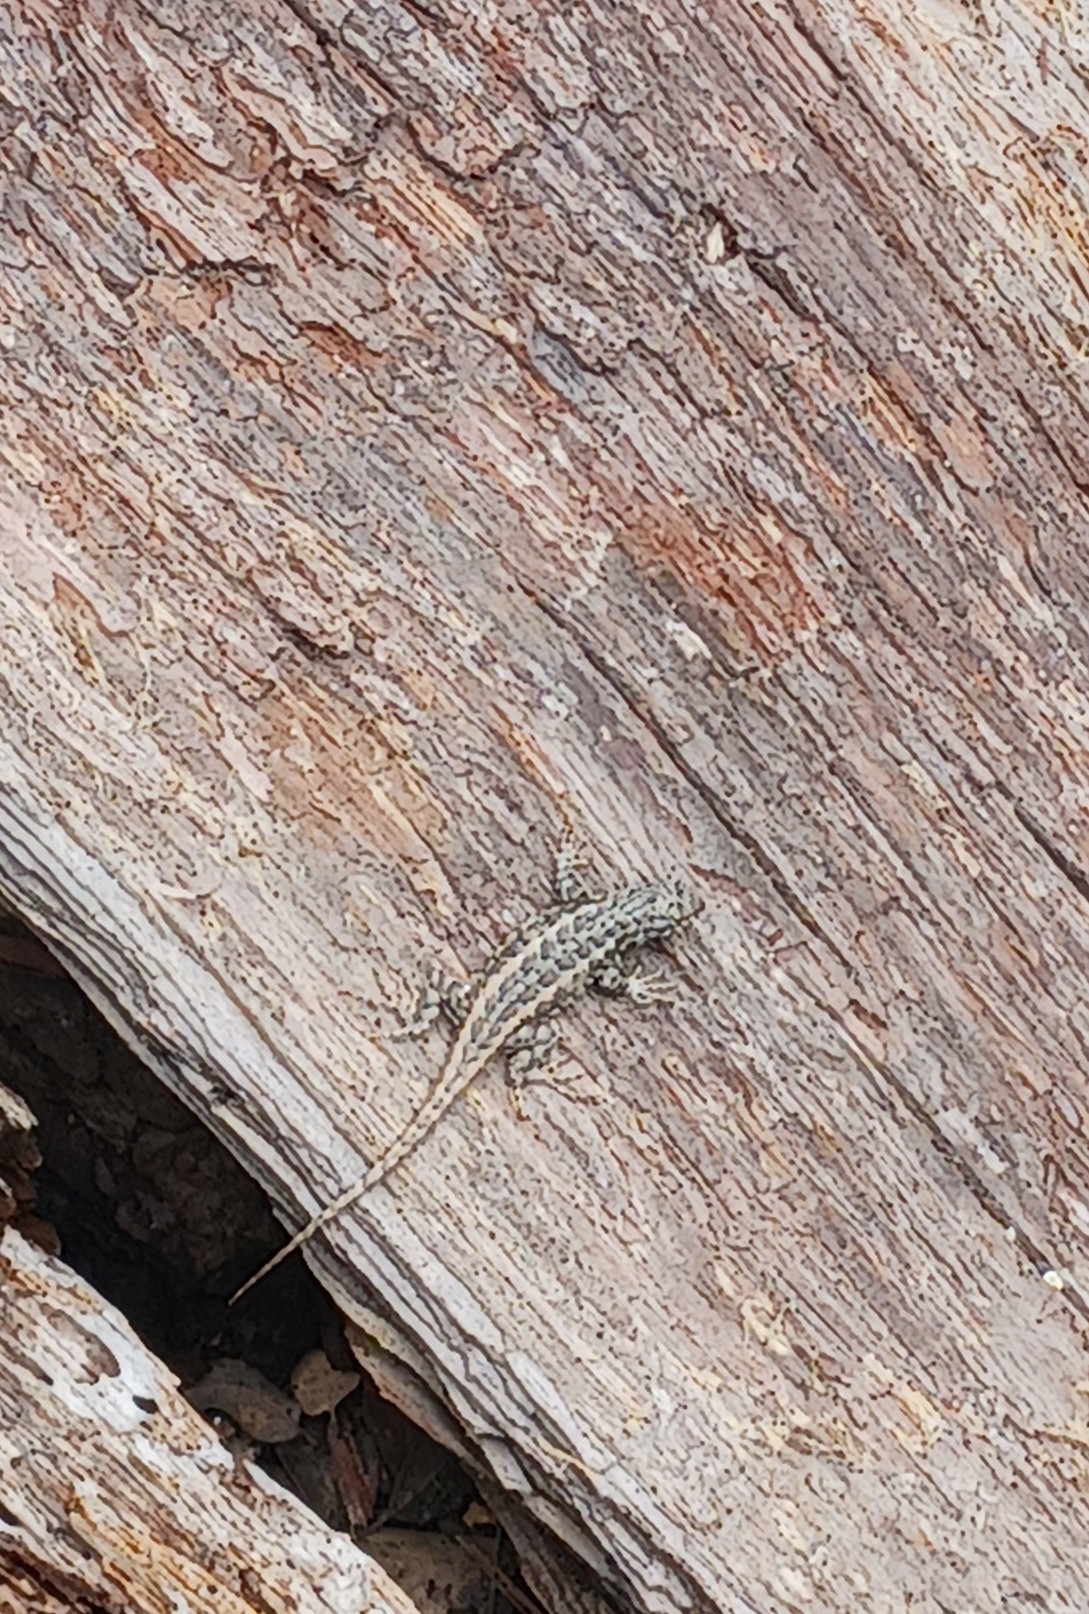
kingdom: Animalia
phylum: Chordata
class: Squamata
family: Phrynosomatidae
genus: Sceloporus
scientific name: Sceloporus graciosus
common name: Sagebrush lizard
